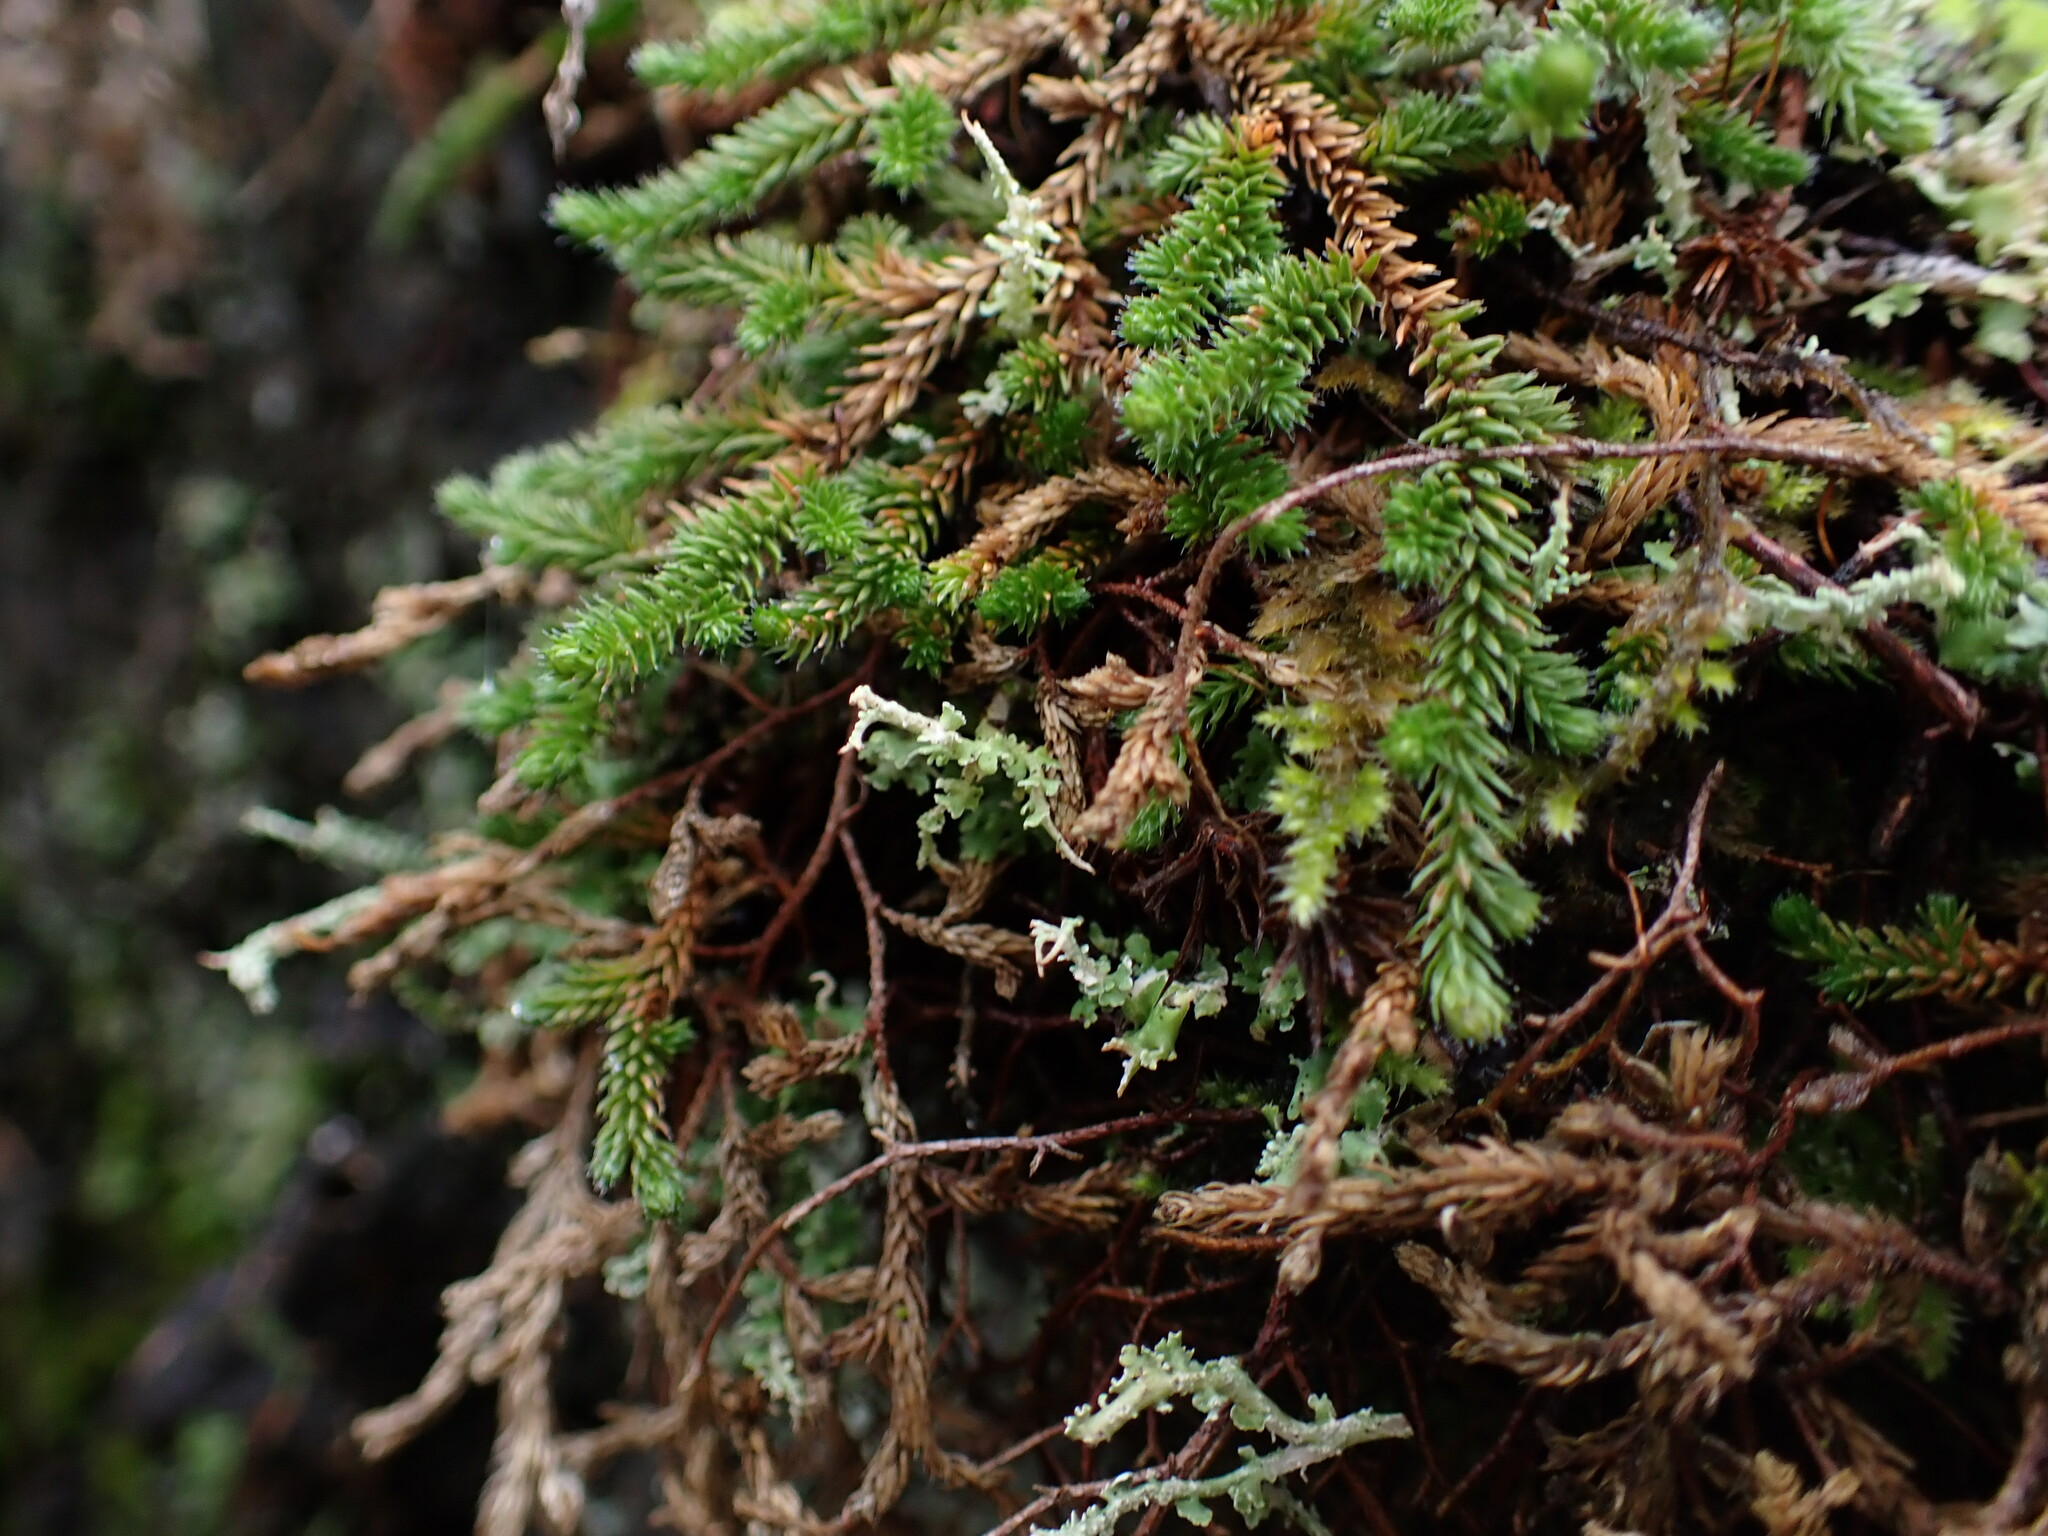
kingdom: Plantae
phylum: Tracheophyta
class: Lycopodiopsida
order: Selaginellales
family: Selaginellaceae
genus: Selaginella
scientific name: Selaginella wallacei
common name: Wallace's selaginella
